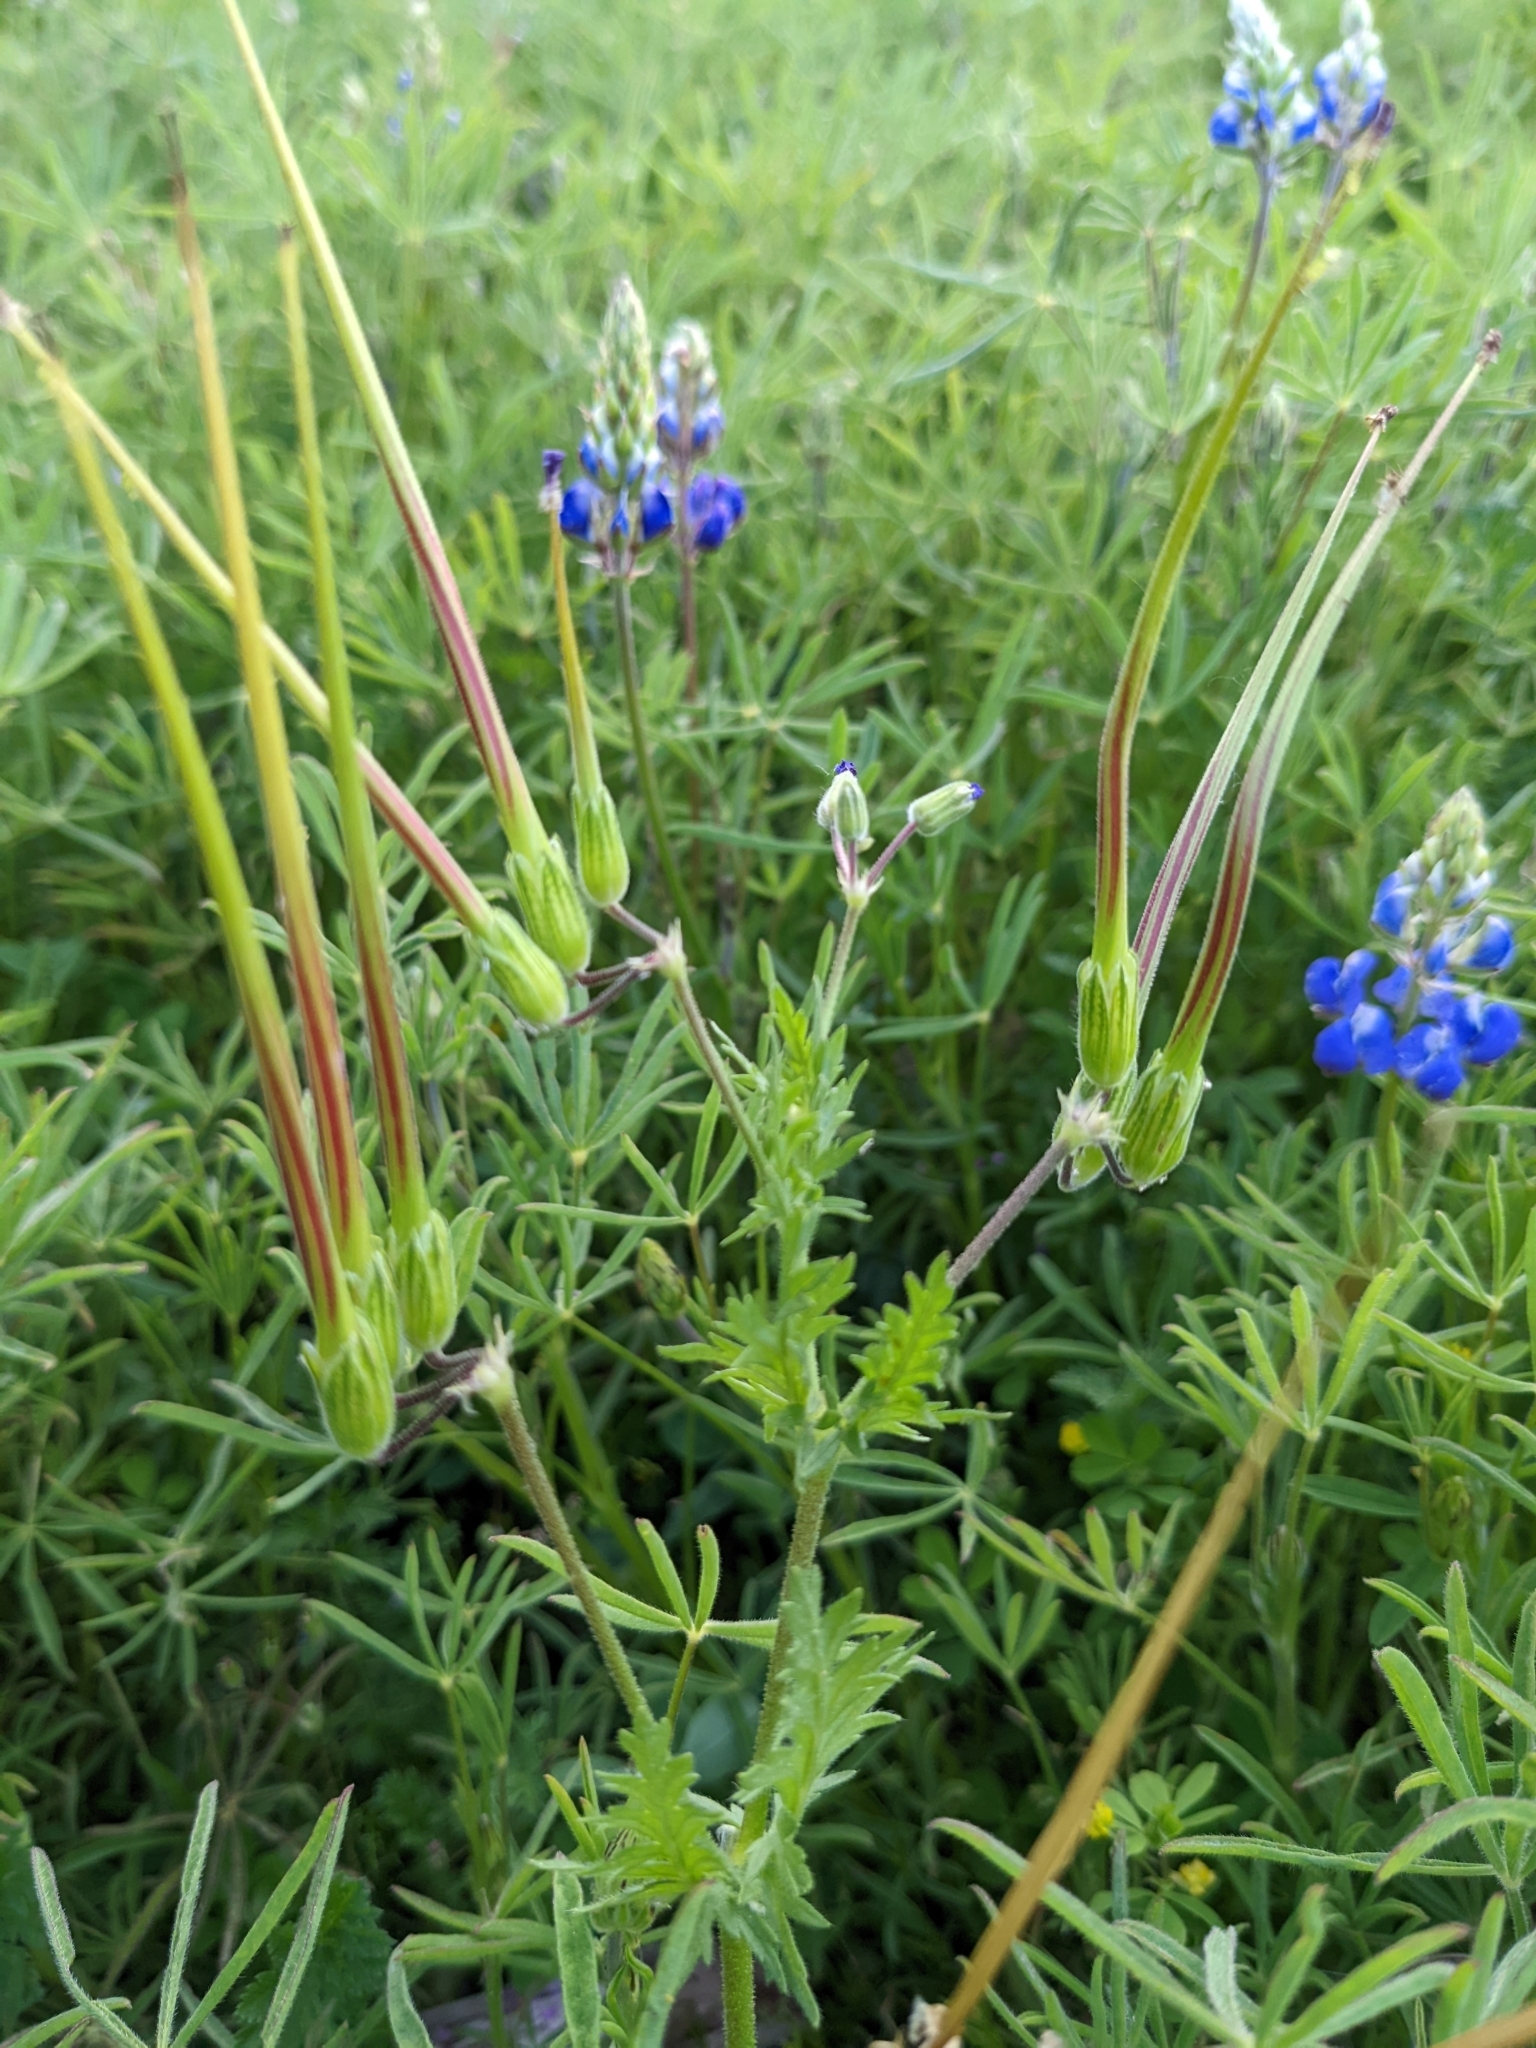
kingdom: Plantae
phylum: Tracheophyta
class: Magnoliopsida
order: Geraniales
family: Geraniaceae
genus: Erodium
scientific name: Erodium
